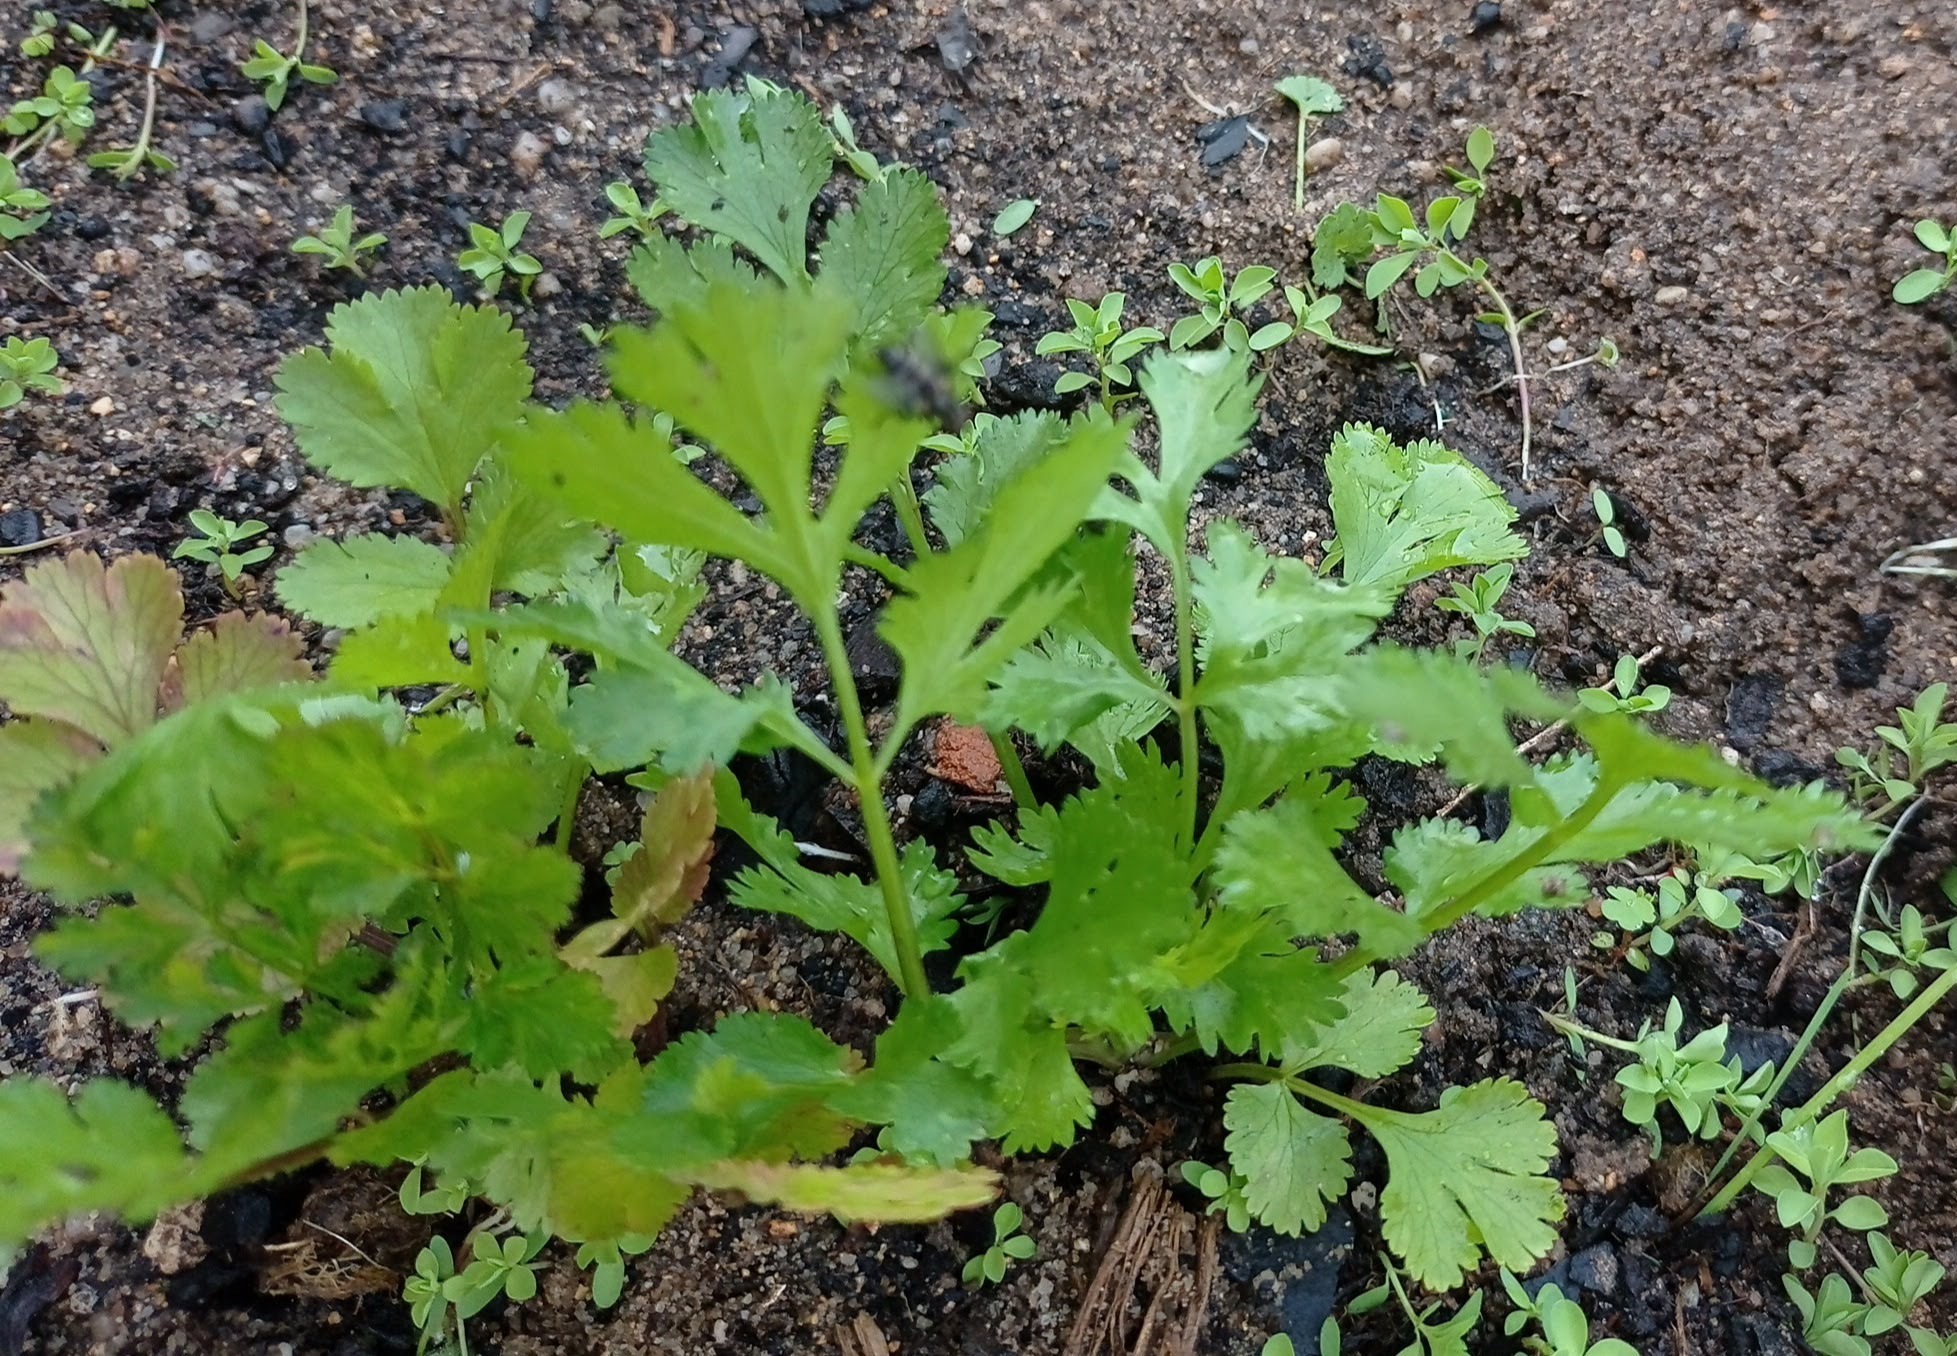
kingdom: Plantae
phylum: Tracheophyta
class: Magnoliopsida
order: Apiales
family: Apiaceae
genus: Coriandrum
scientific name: Coriandrum sativum
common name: Coriander
